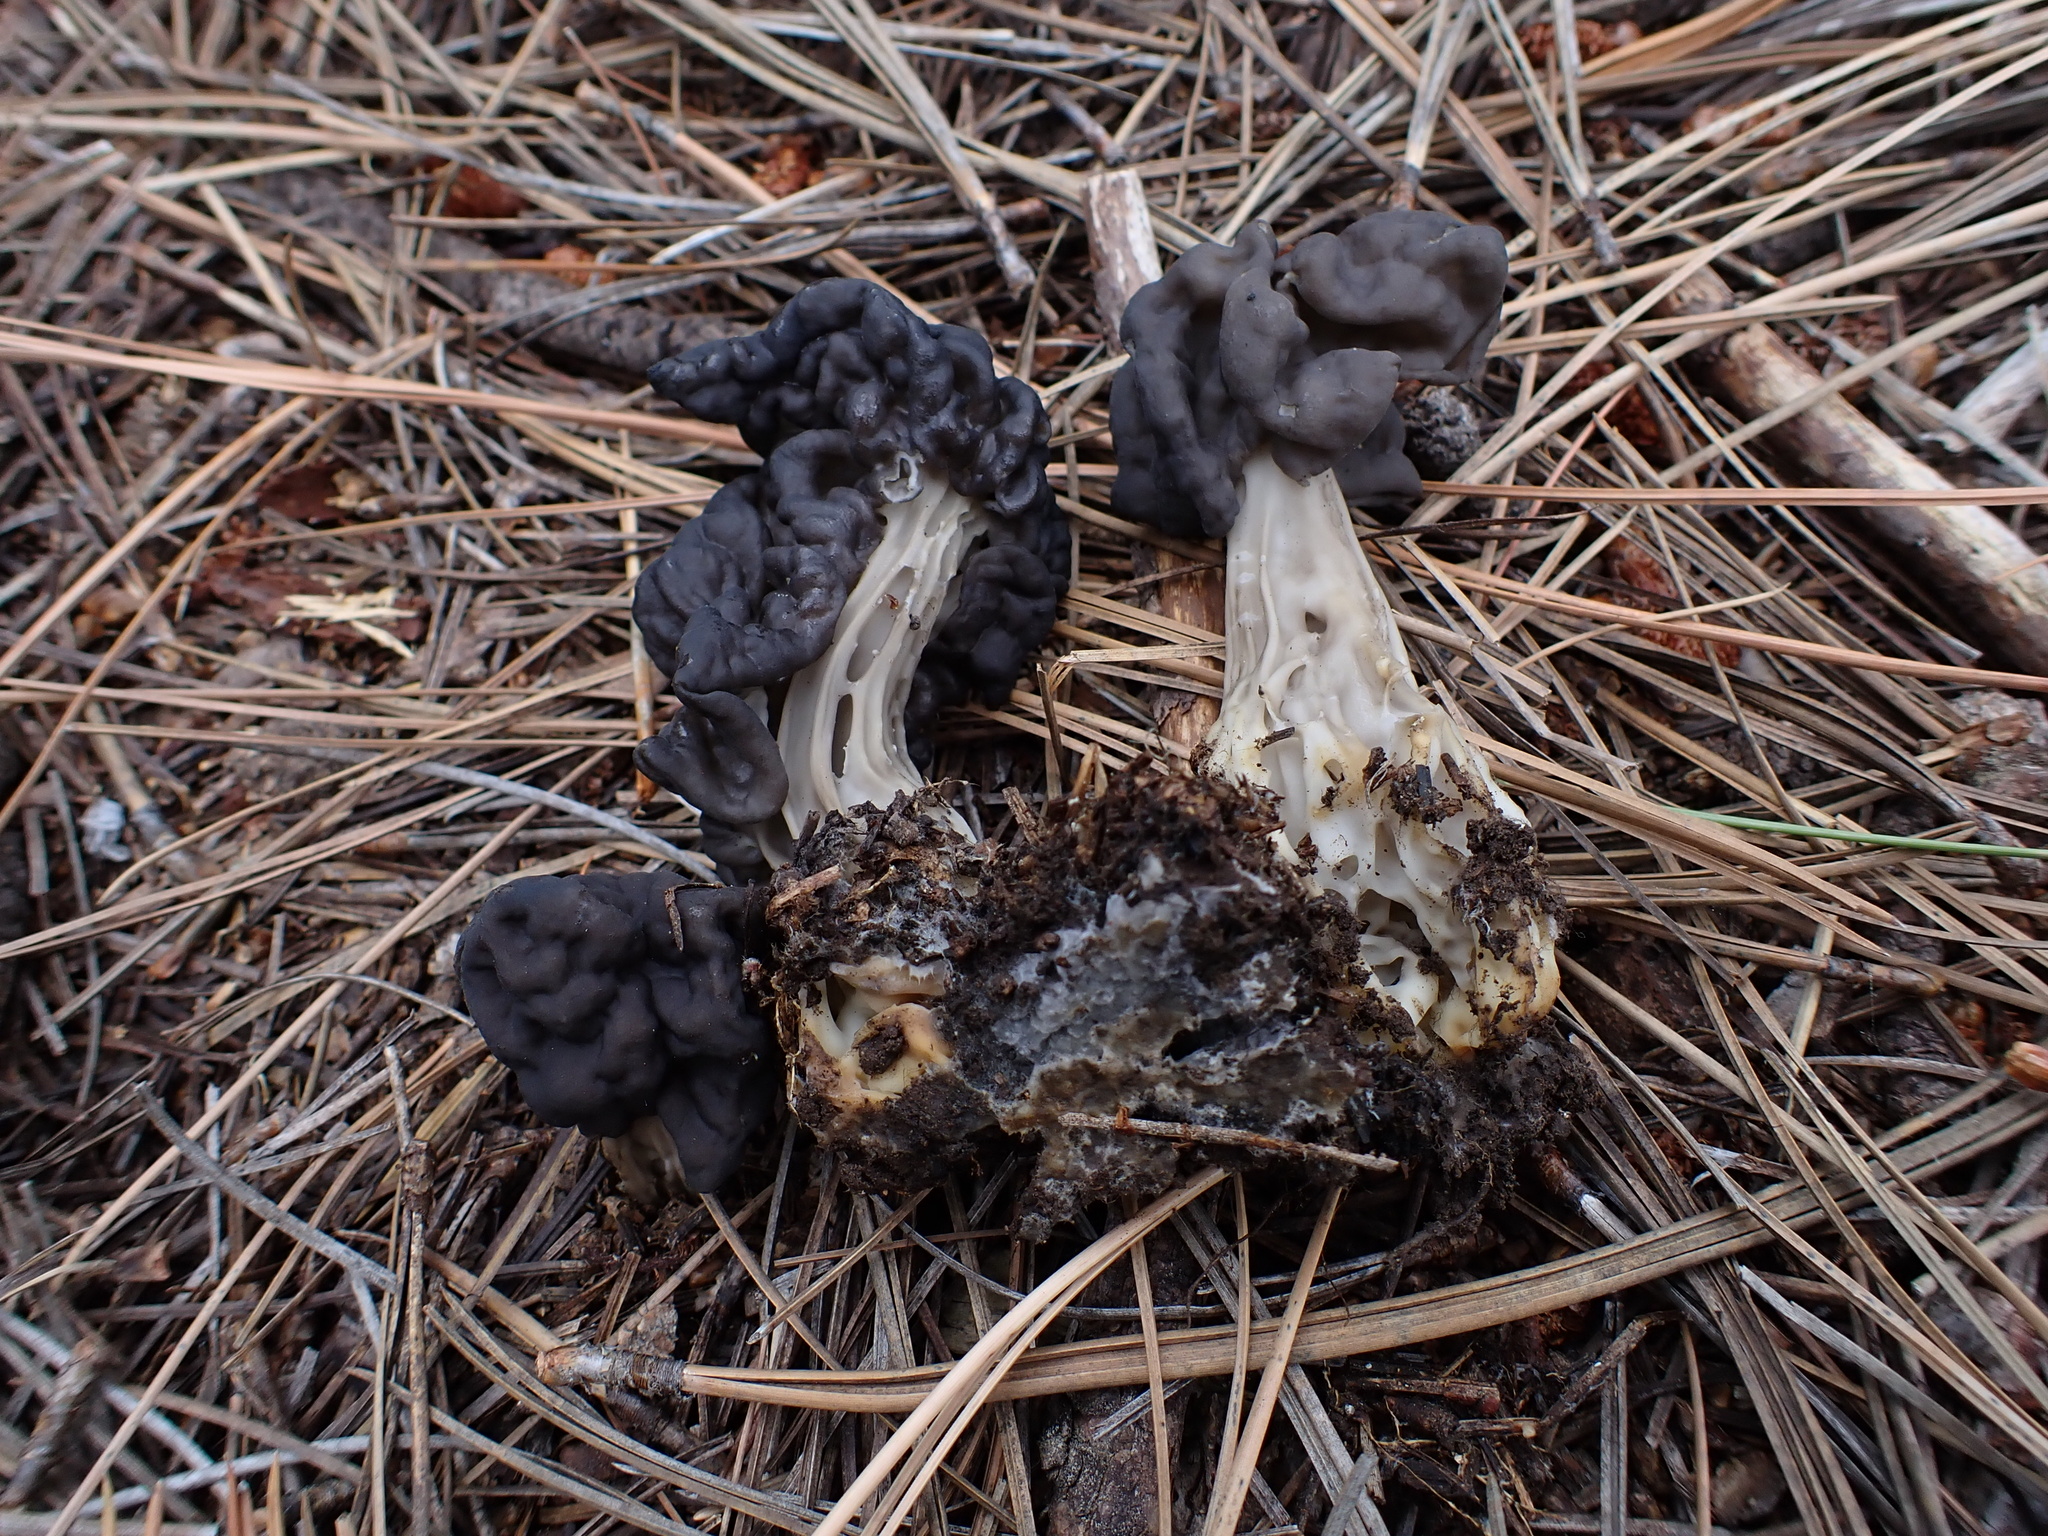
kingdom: Fungi
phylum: Ascomycota
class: Pezizomycetes
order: Pezizales
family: Helvellaceae
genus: Helvella
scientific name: Helvella vespertina
